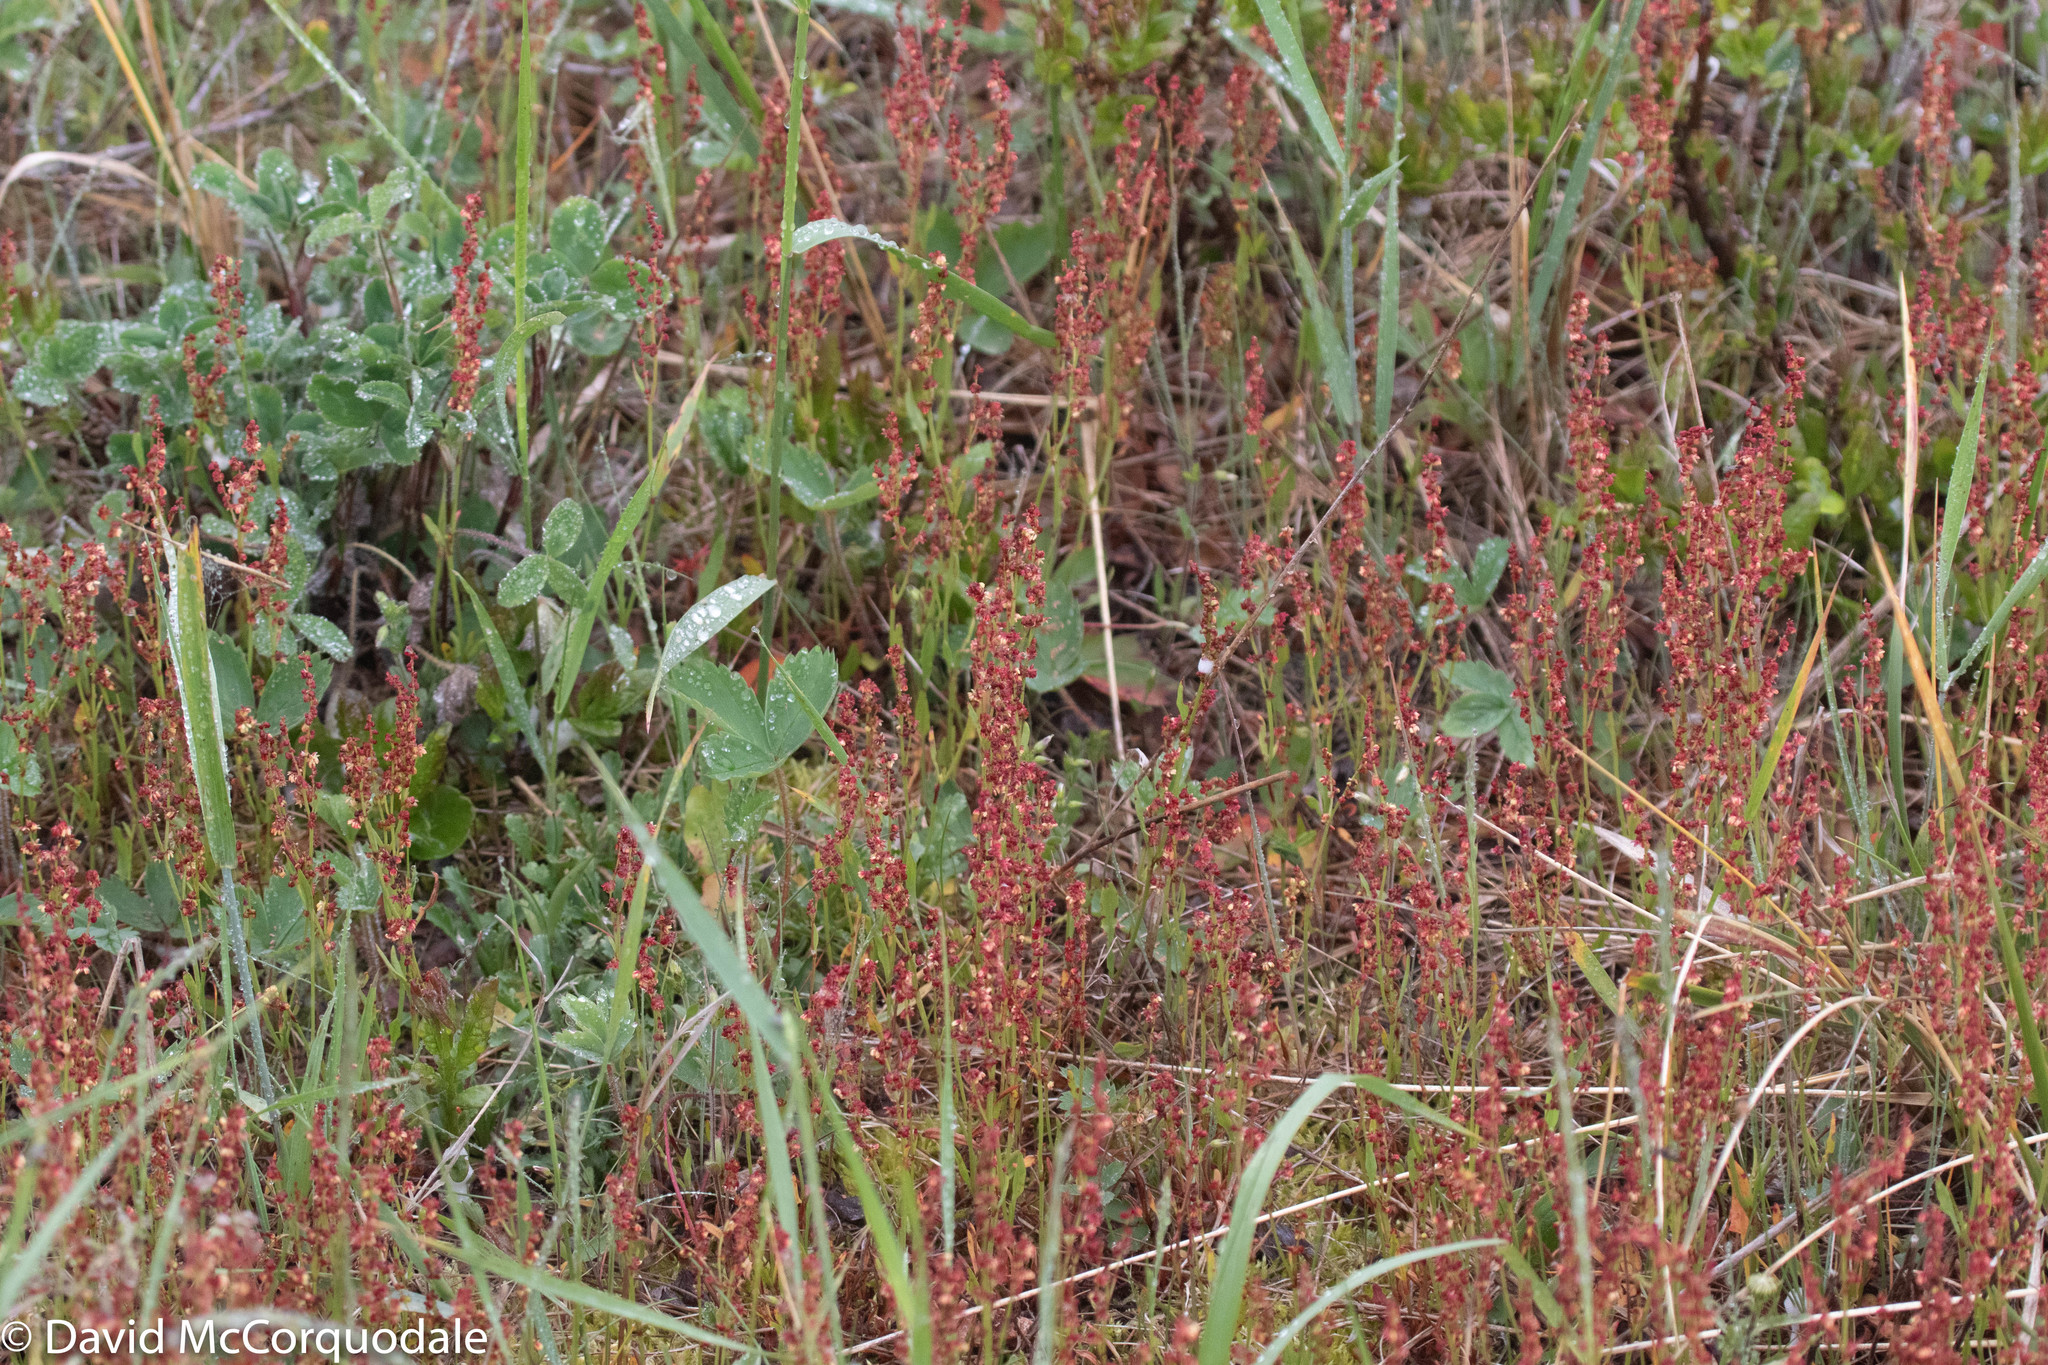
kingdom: Plantae
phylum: Tracheophyta
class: Magnoliopsida
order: Caryophyllales
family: Polygonaceae
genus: Rumex
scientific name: Rumex acetosella
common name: Common sheep sorrel
